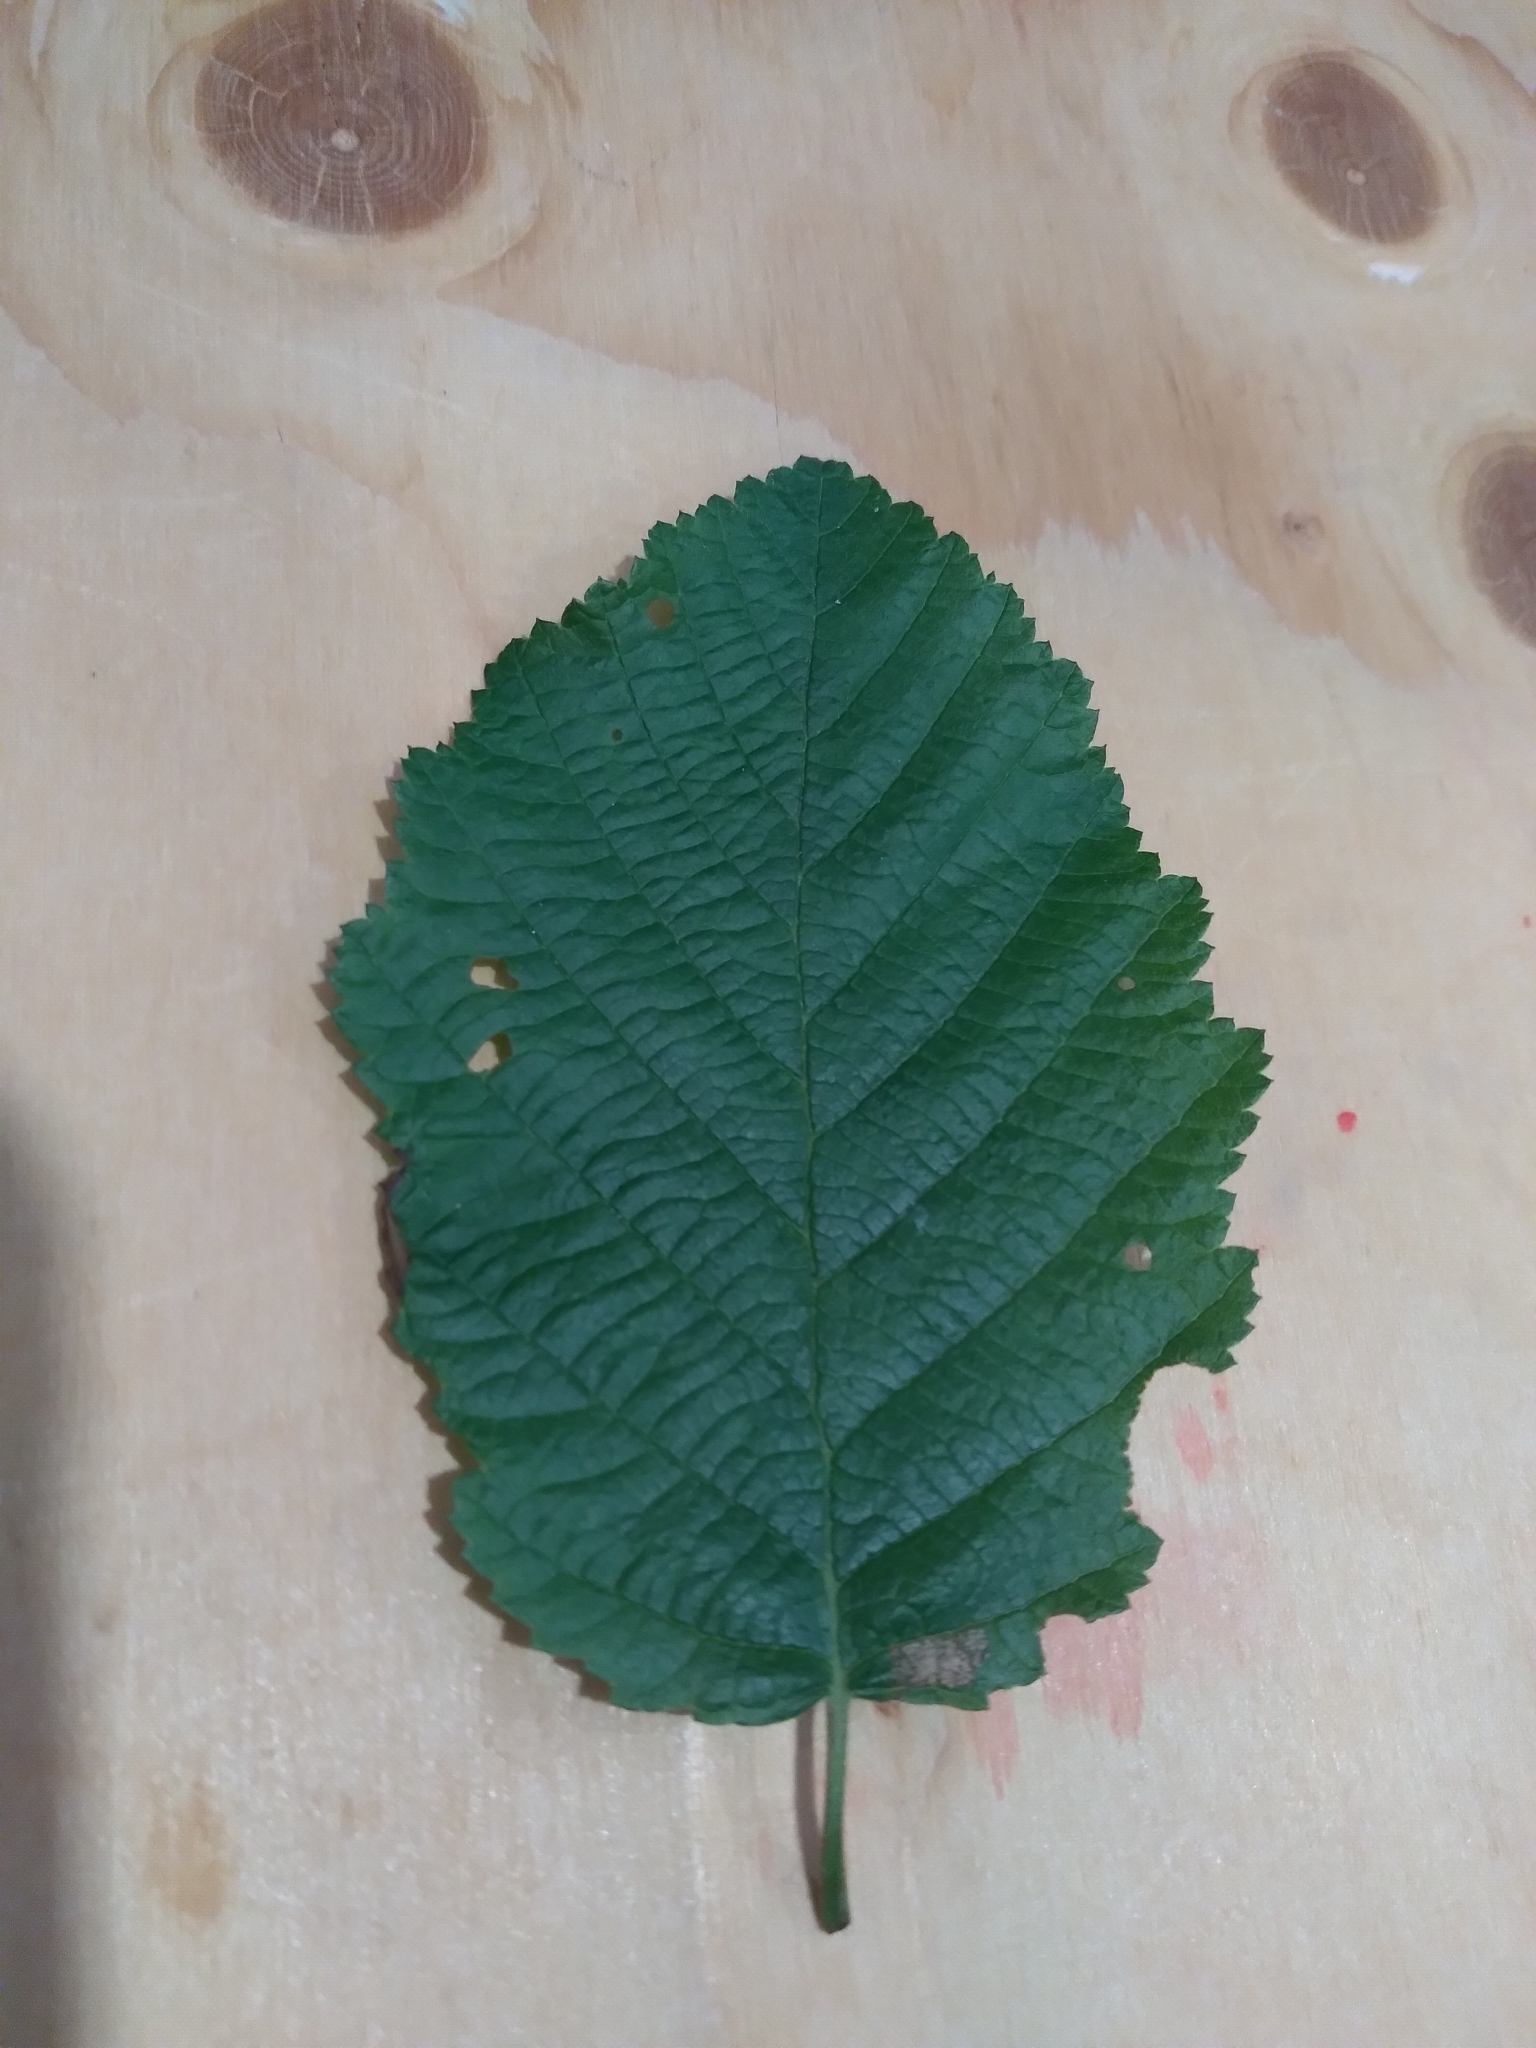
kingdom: Plantae
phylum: Tracheophyta
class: Magnoliopsida
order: Fagales
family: Betulaceae
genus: Alnus
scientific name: Alnus incana
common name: Grey alder
